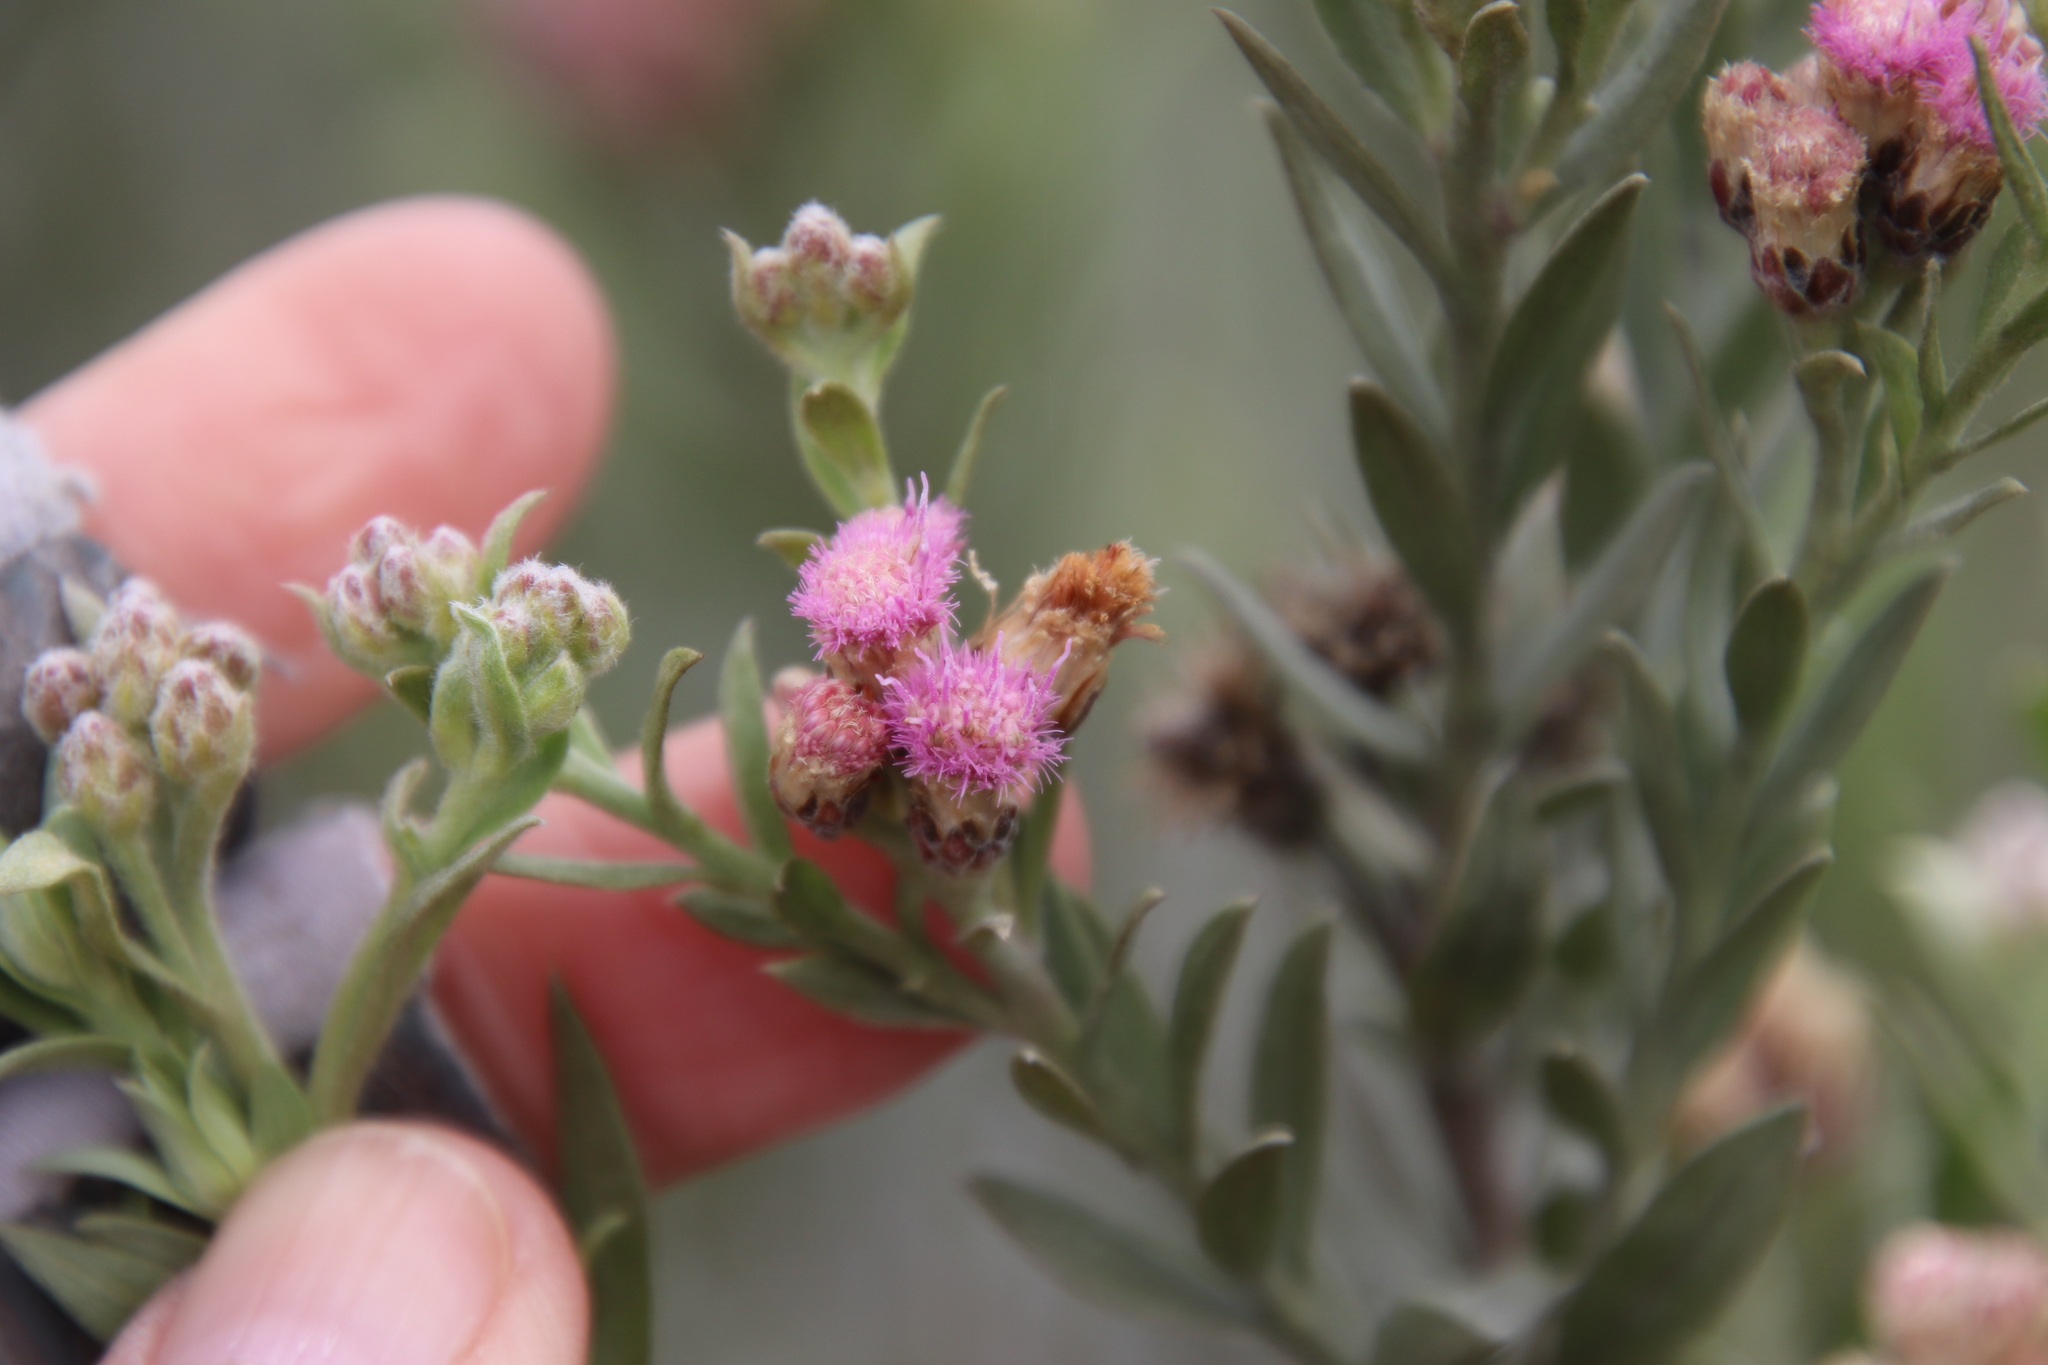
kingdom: Plantae
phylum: Tracheophyta
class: Magnoliopsida
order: Asterales
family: Asteraceae
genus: Pluchea
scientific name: Pluchea sericea
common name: Arrow-weed
